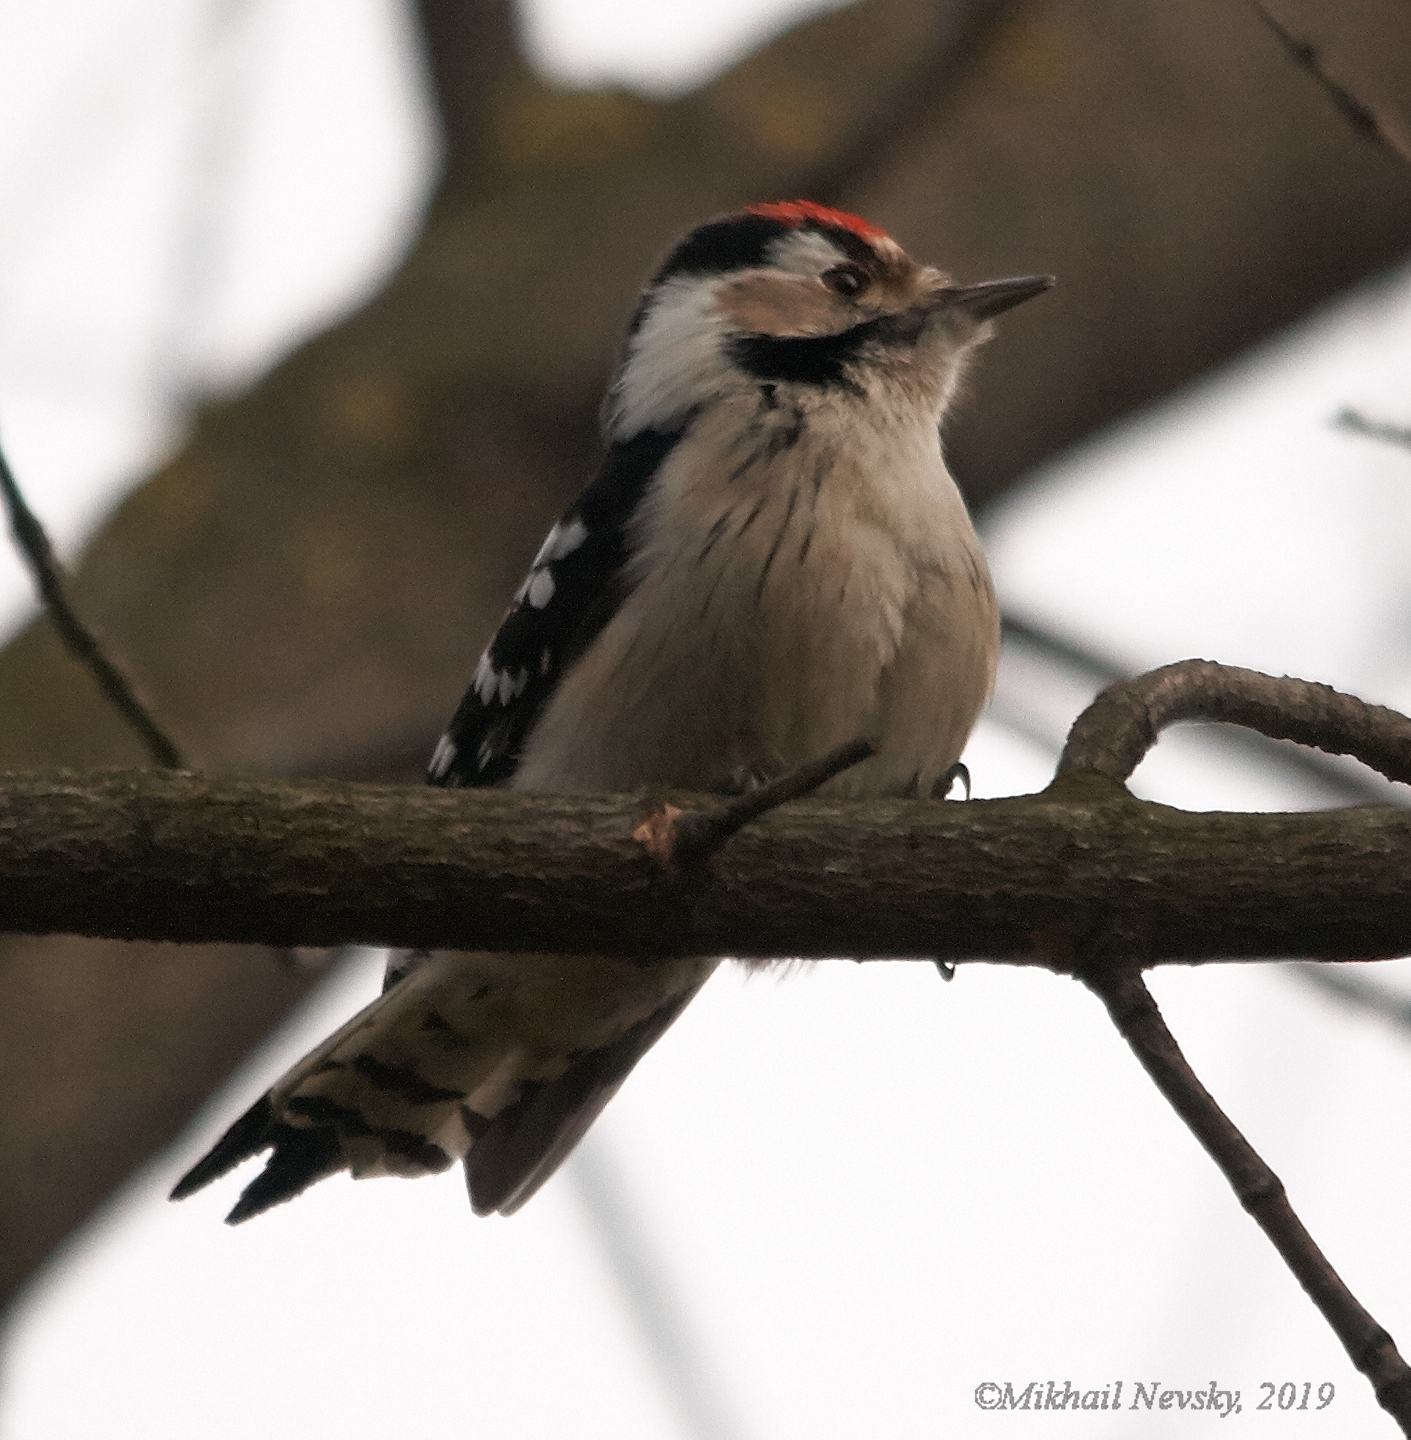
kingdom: Animalia
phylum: Chordata
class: Aves
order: Piciformes
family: Picidae
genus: Dryobates
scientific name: Dryobates minor
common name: Lesser spotted woodpecker
